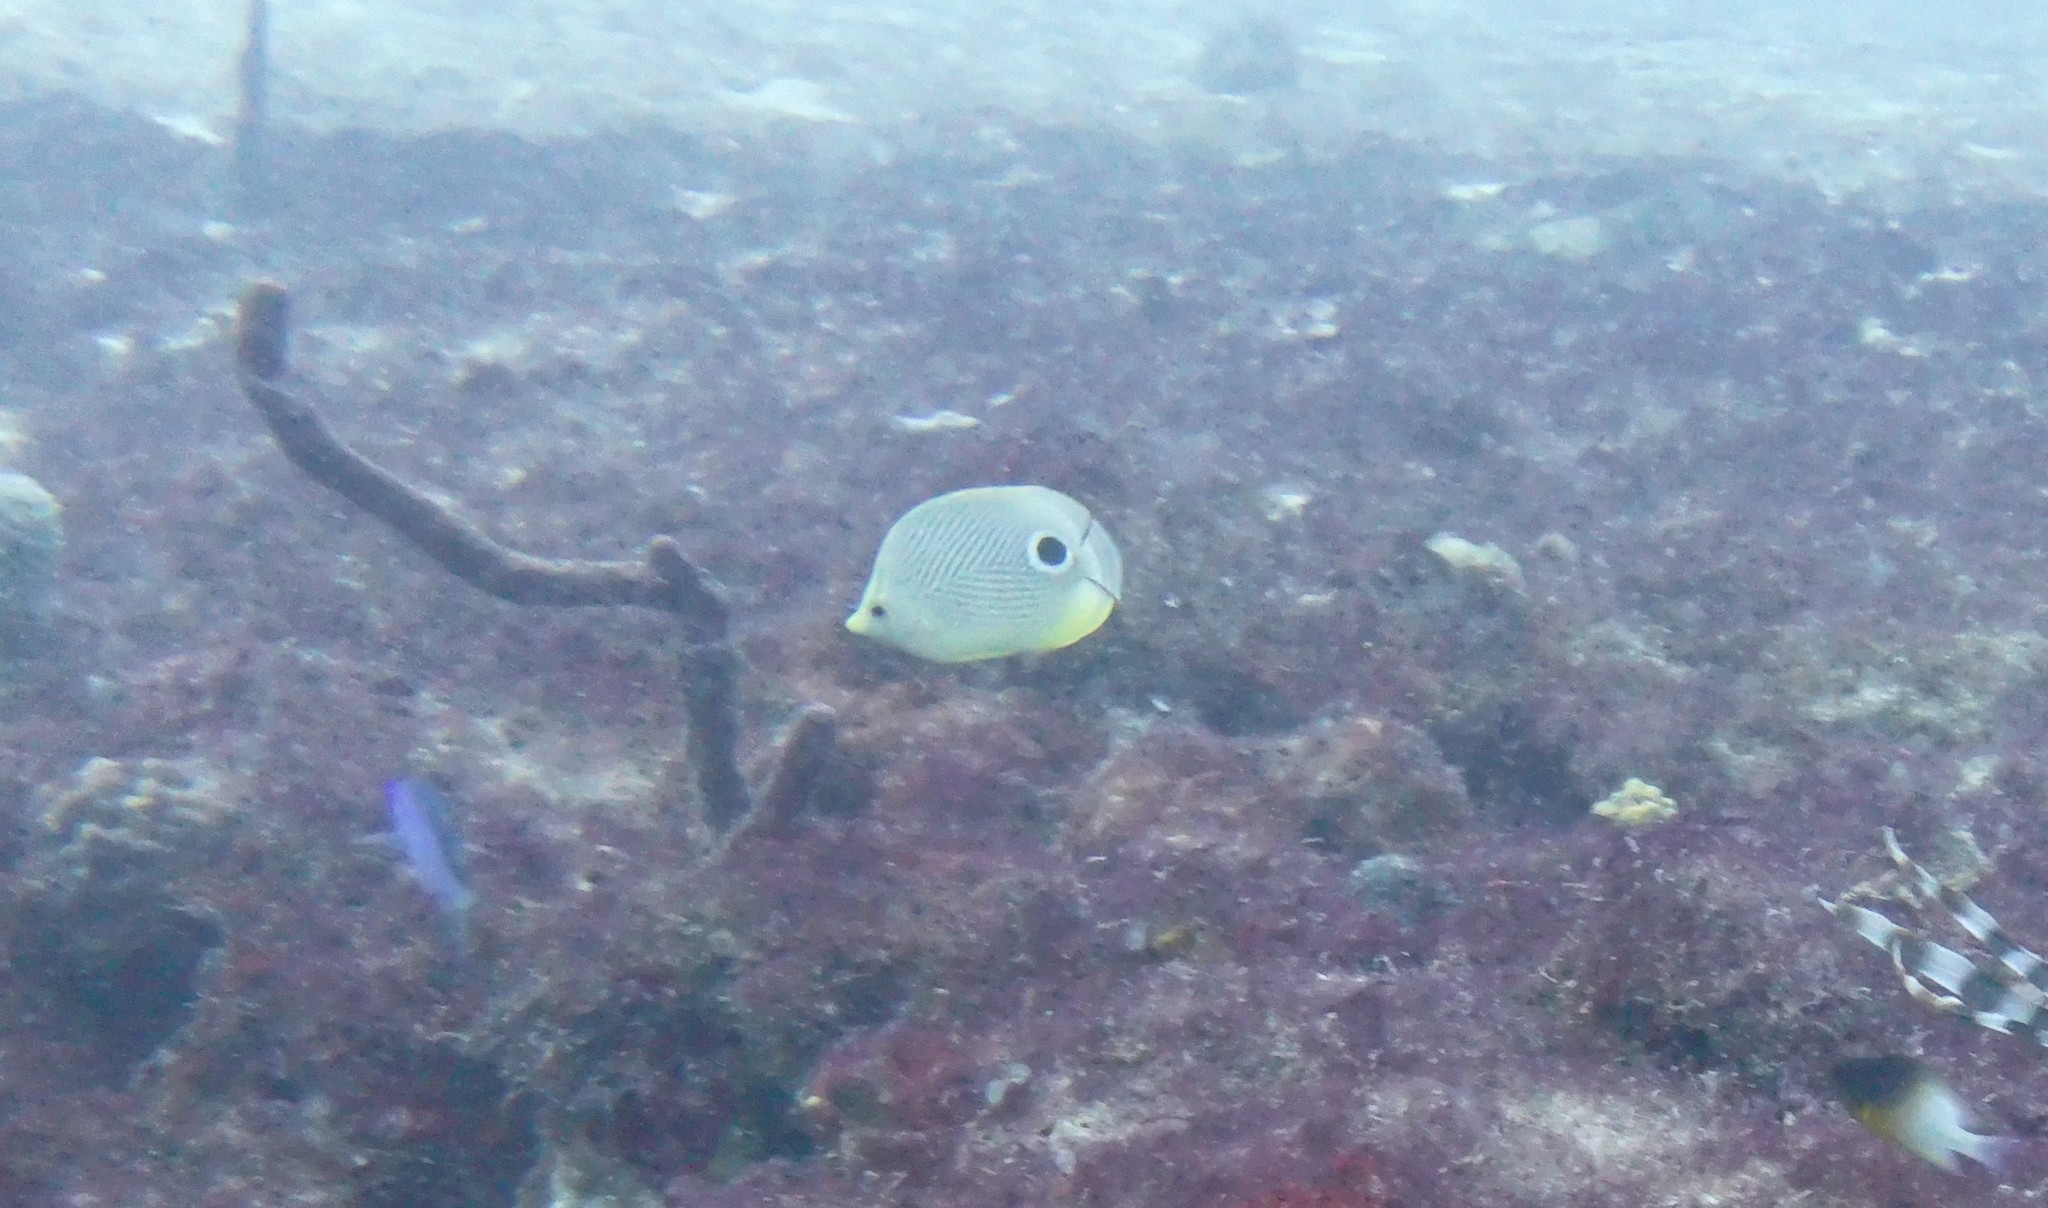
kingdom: Animalia
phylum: Chordata
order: Perciformes
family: Chaetodontidae
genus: Chaetodon
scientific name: Chaetodon capistratus
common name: Kete
